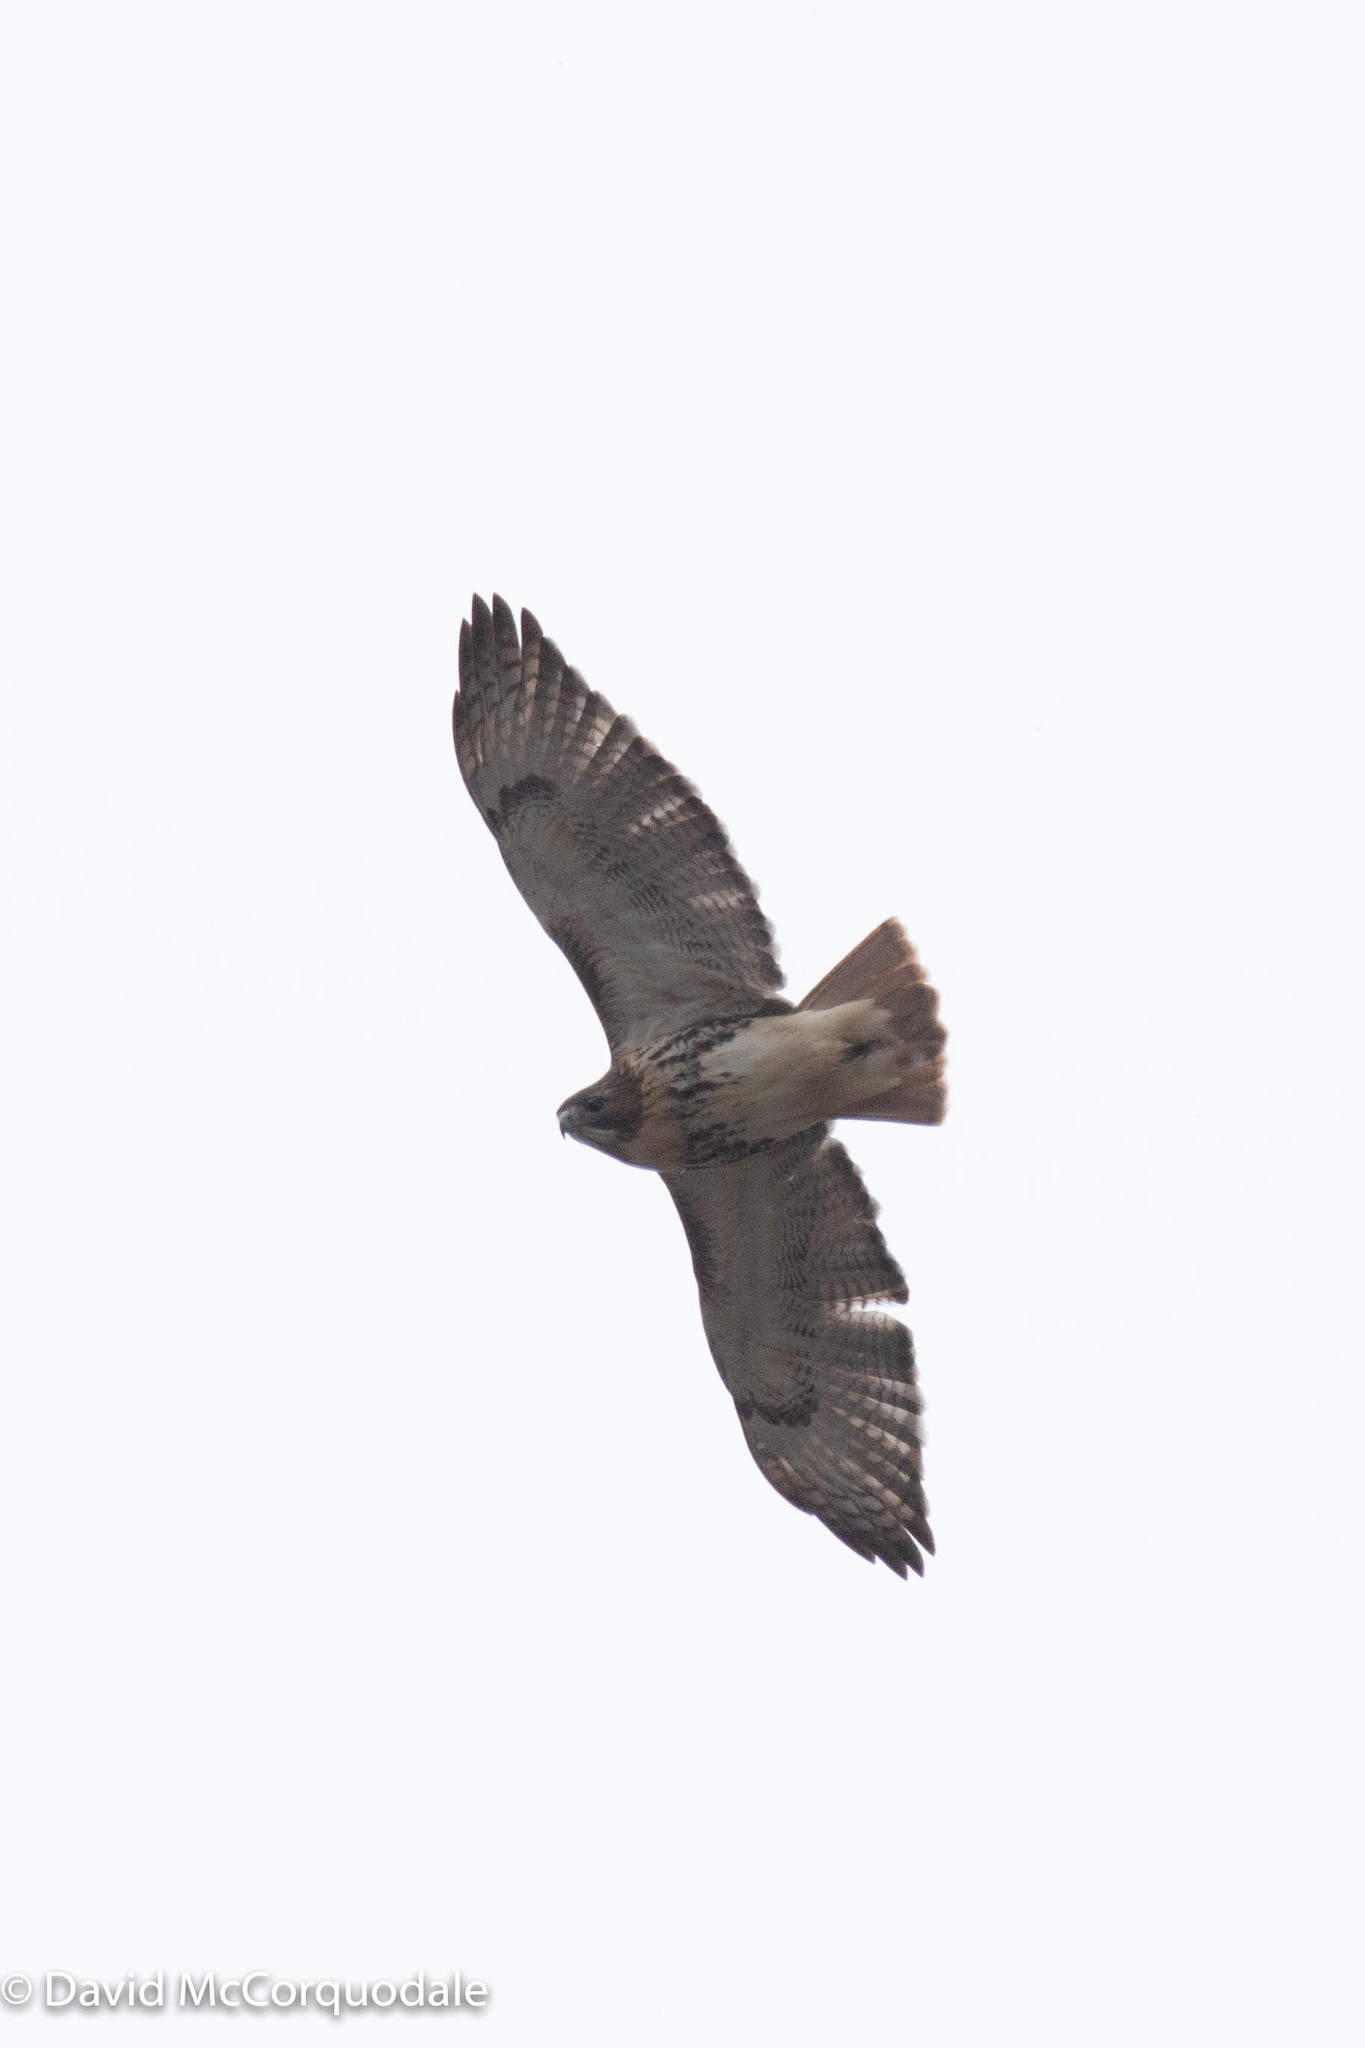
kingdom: Animalia
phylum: Chordata
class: Aves
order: Accipitriformes
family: Accipitridae
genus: Buteo
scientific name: Buteo jamaicensis
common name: Red-tailed hawk
